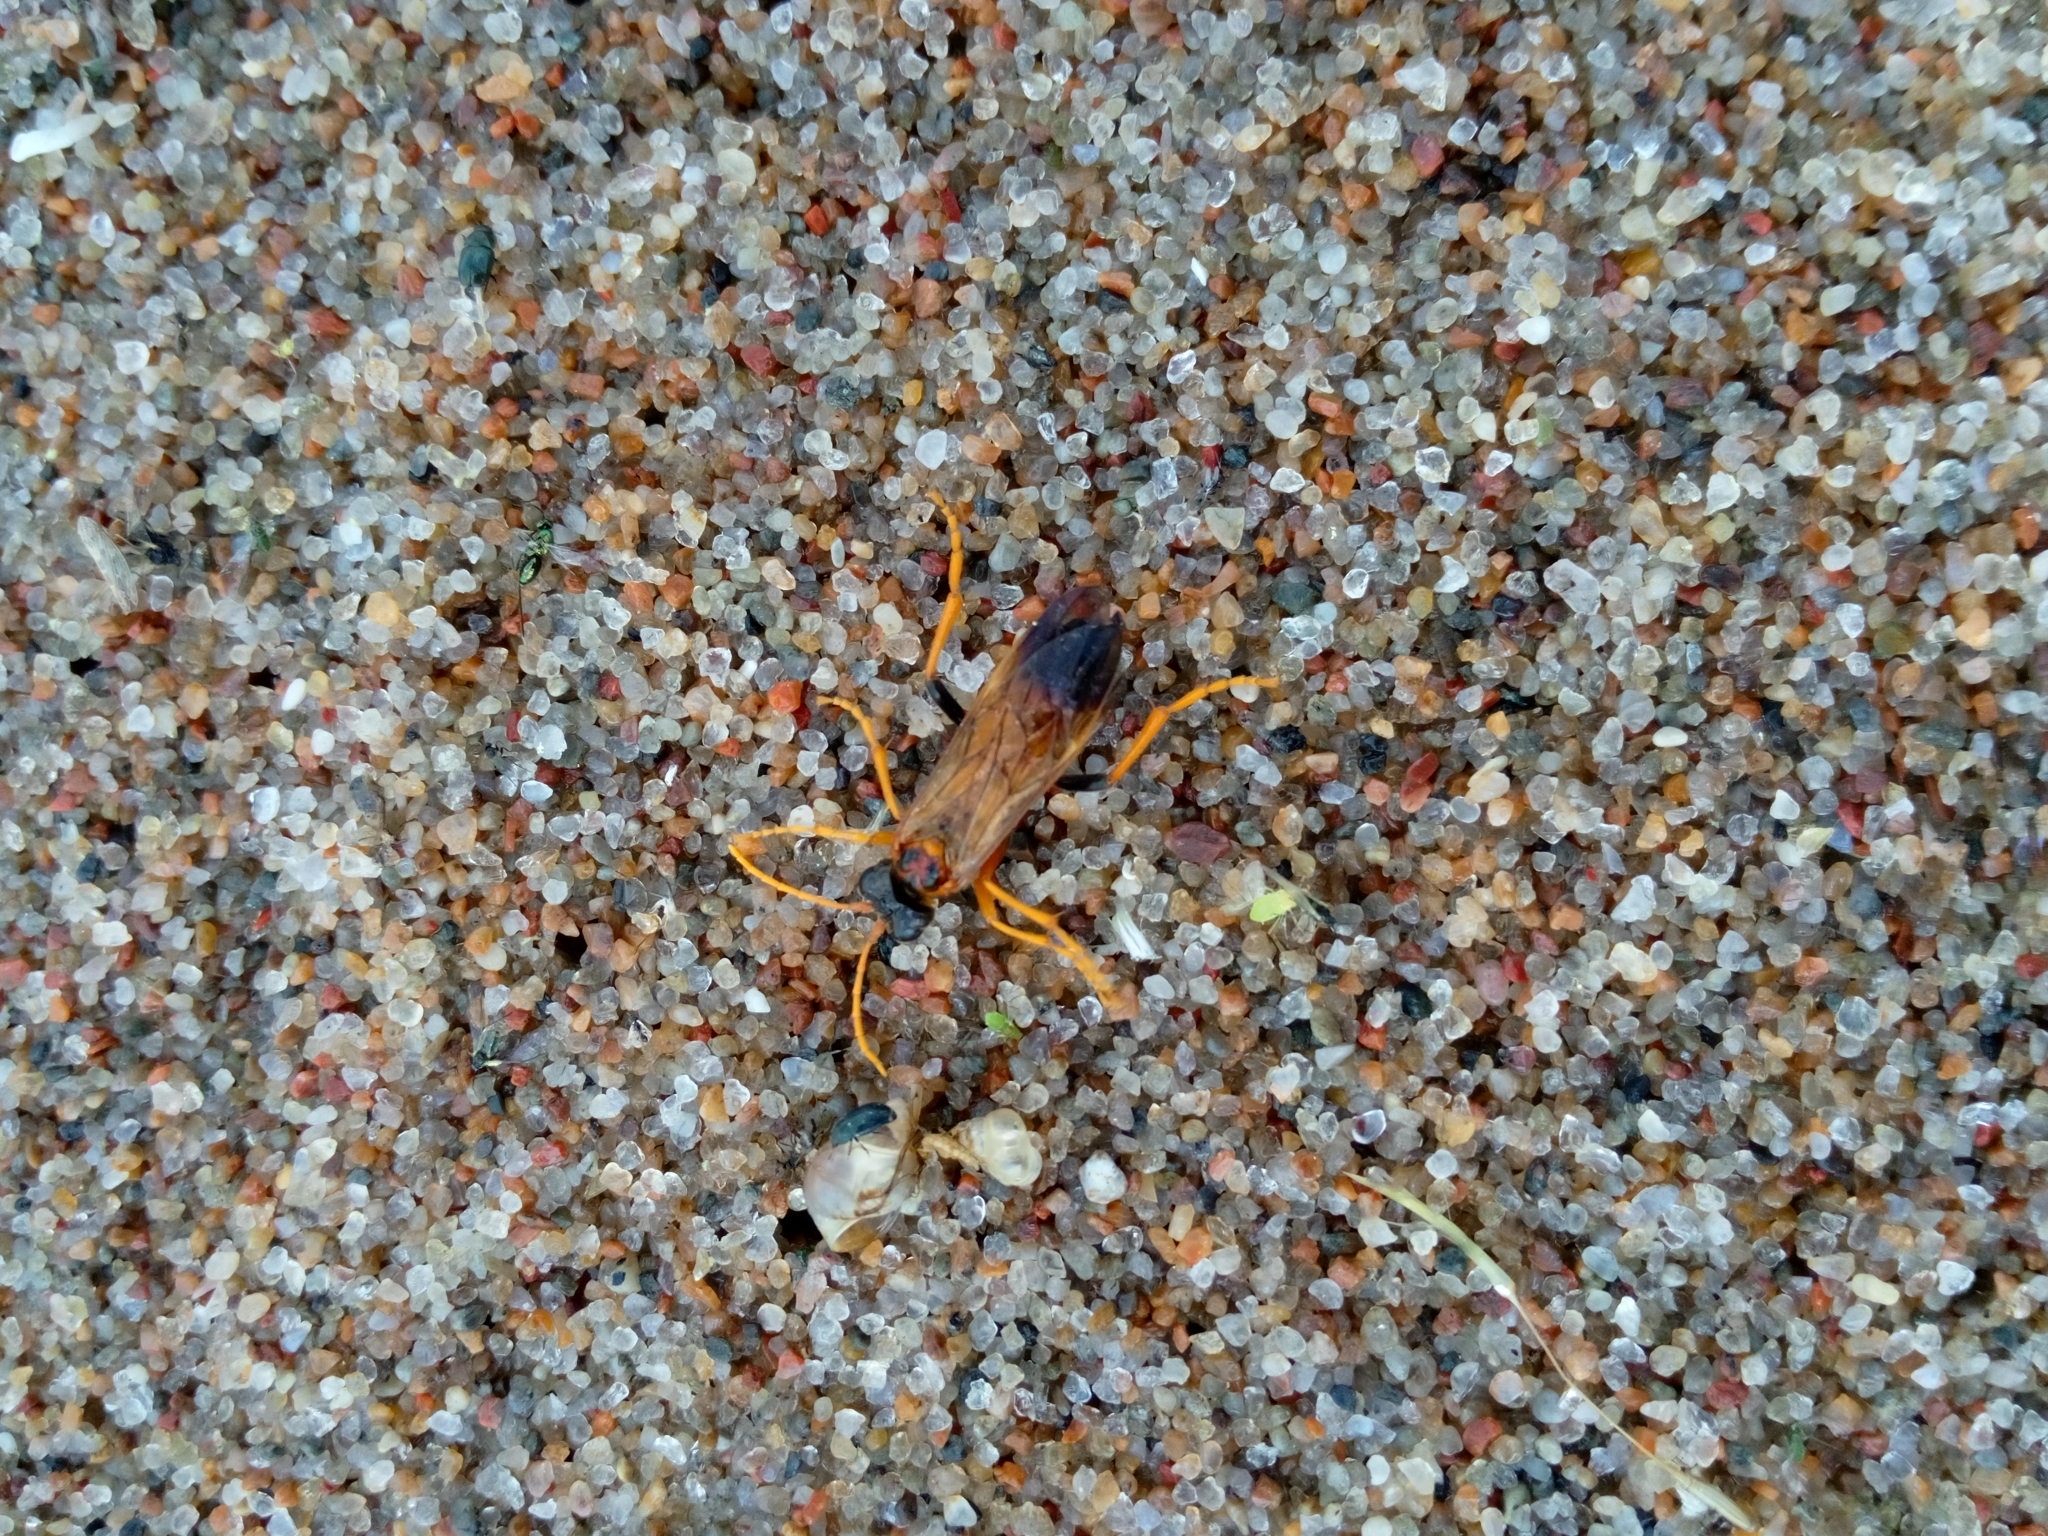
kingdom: Animalia
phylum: Arthropoda
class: Insecta
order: Hymenoptera
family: Tenthredinidae
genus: Tenthredo
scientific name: Tenthredo campestris
